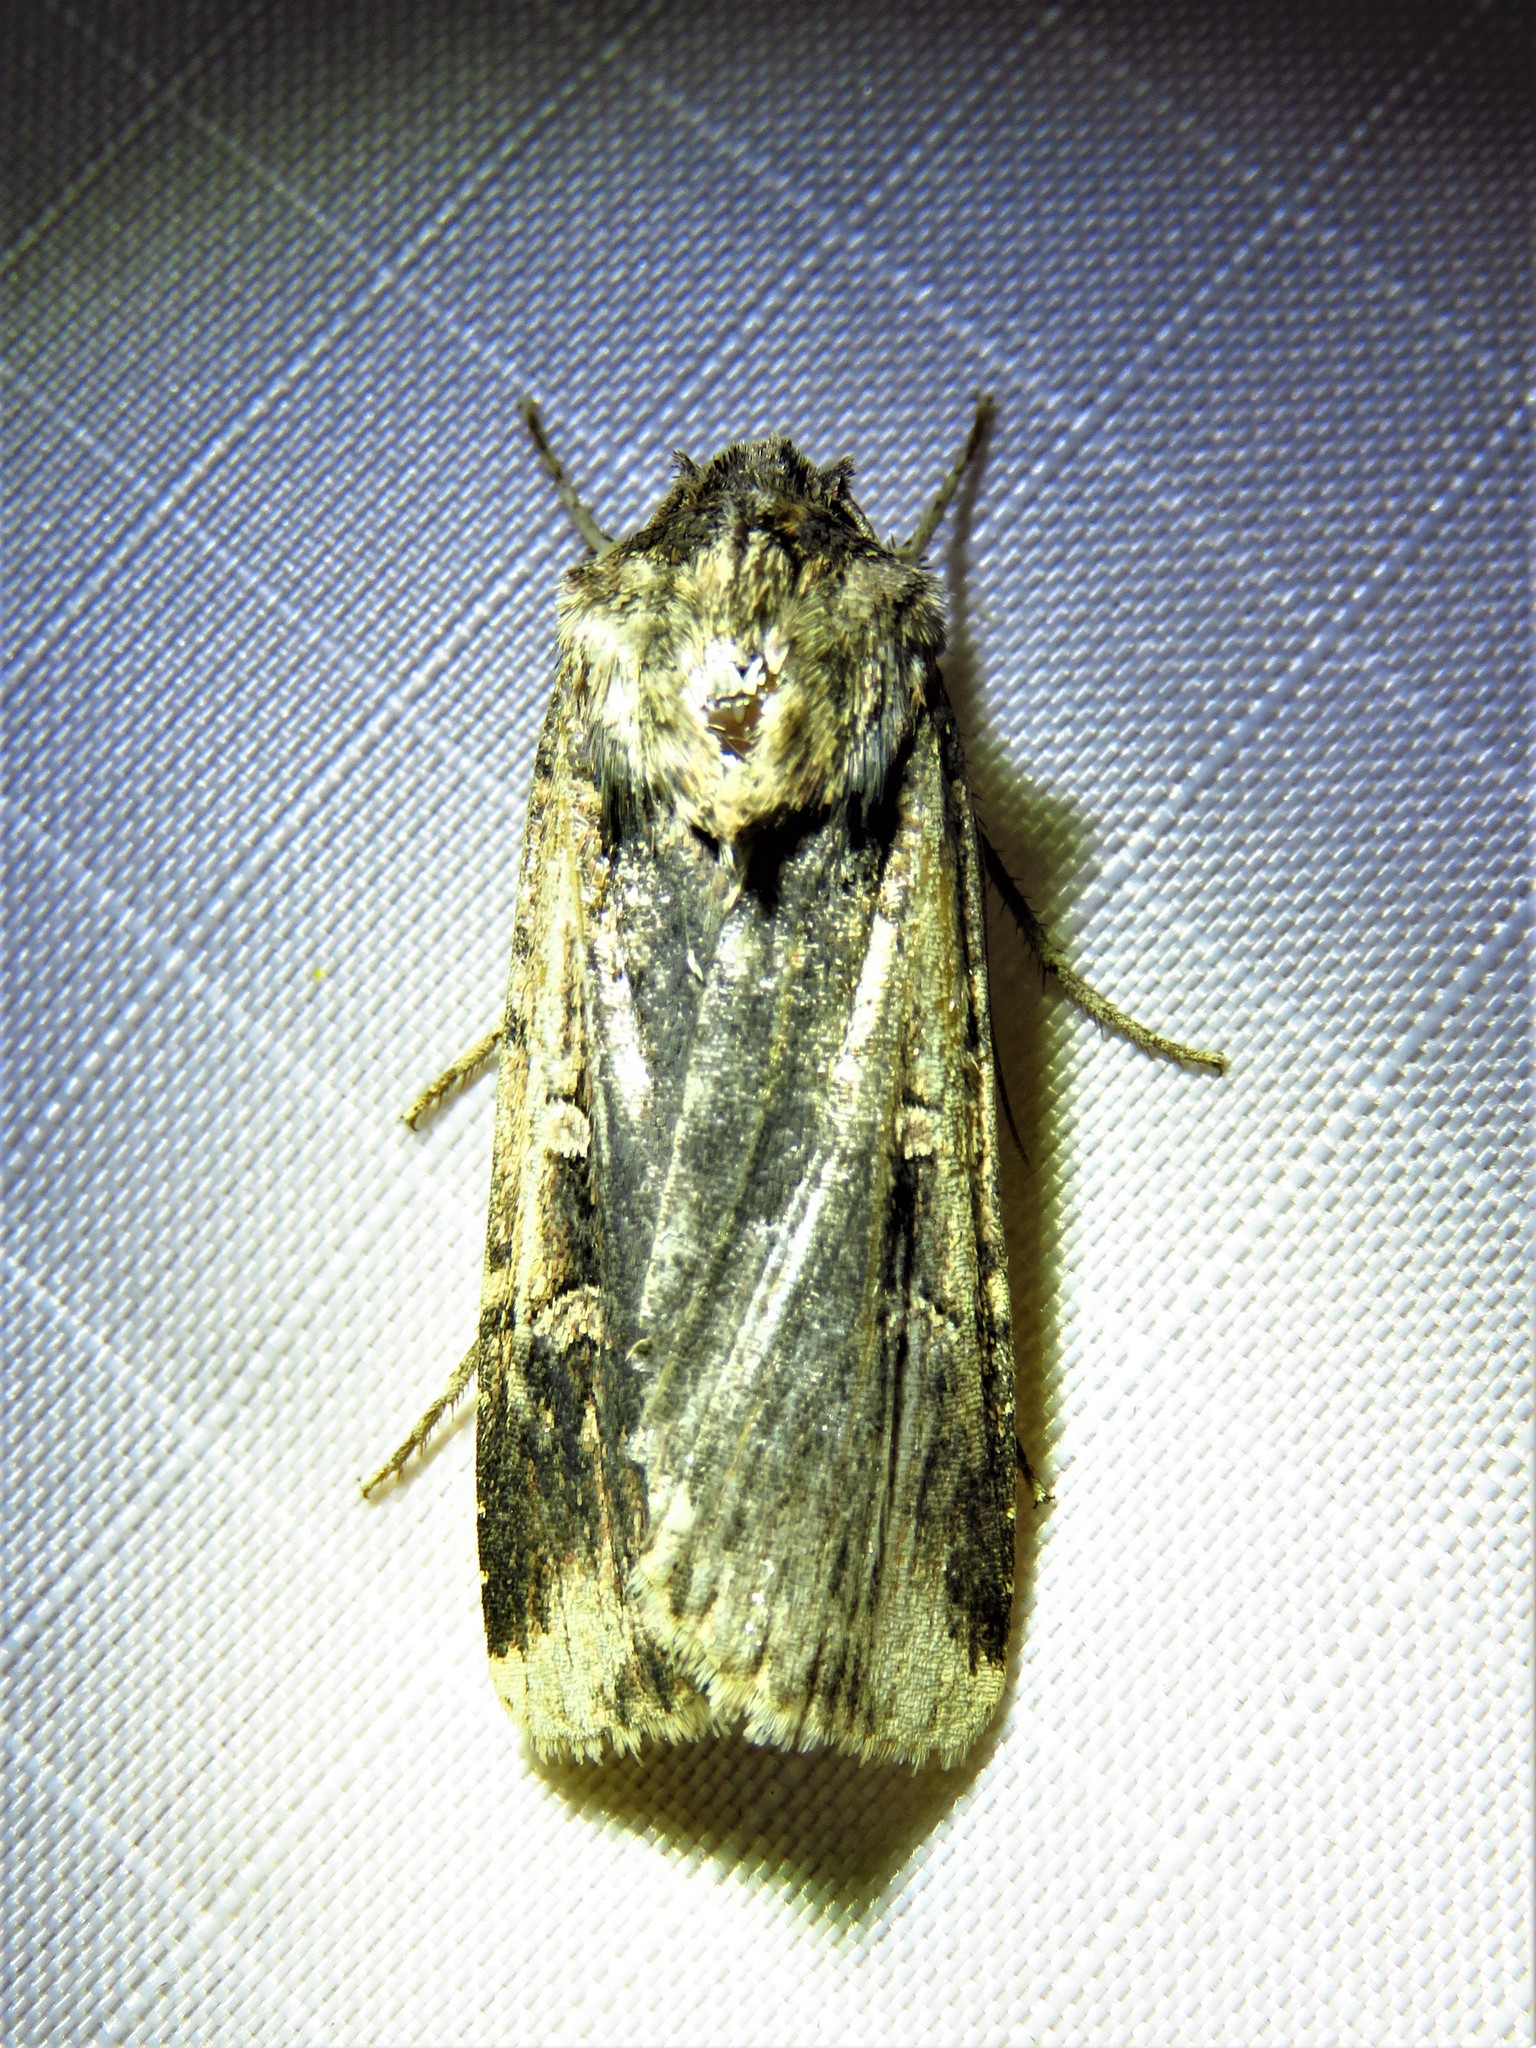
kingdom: Animalia
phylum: Arthropoda
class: Insecta
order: Lepidoptera
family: Noctuidae
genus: Feltia
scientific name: Feltia subterranea
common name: Granulate cutworm
